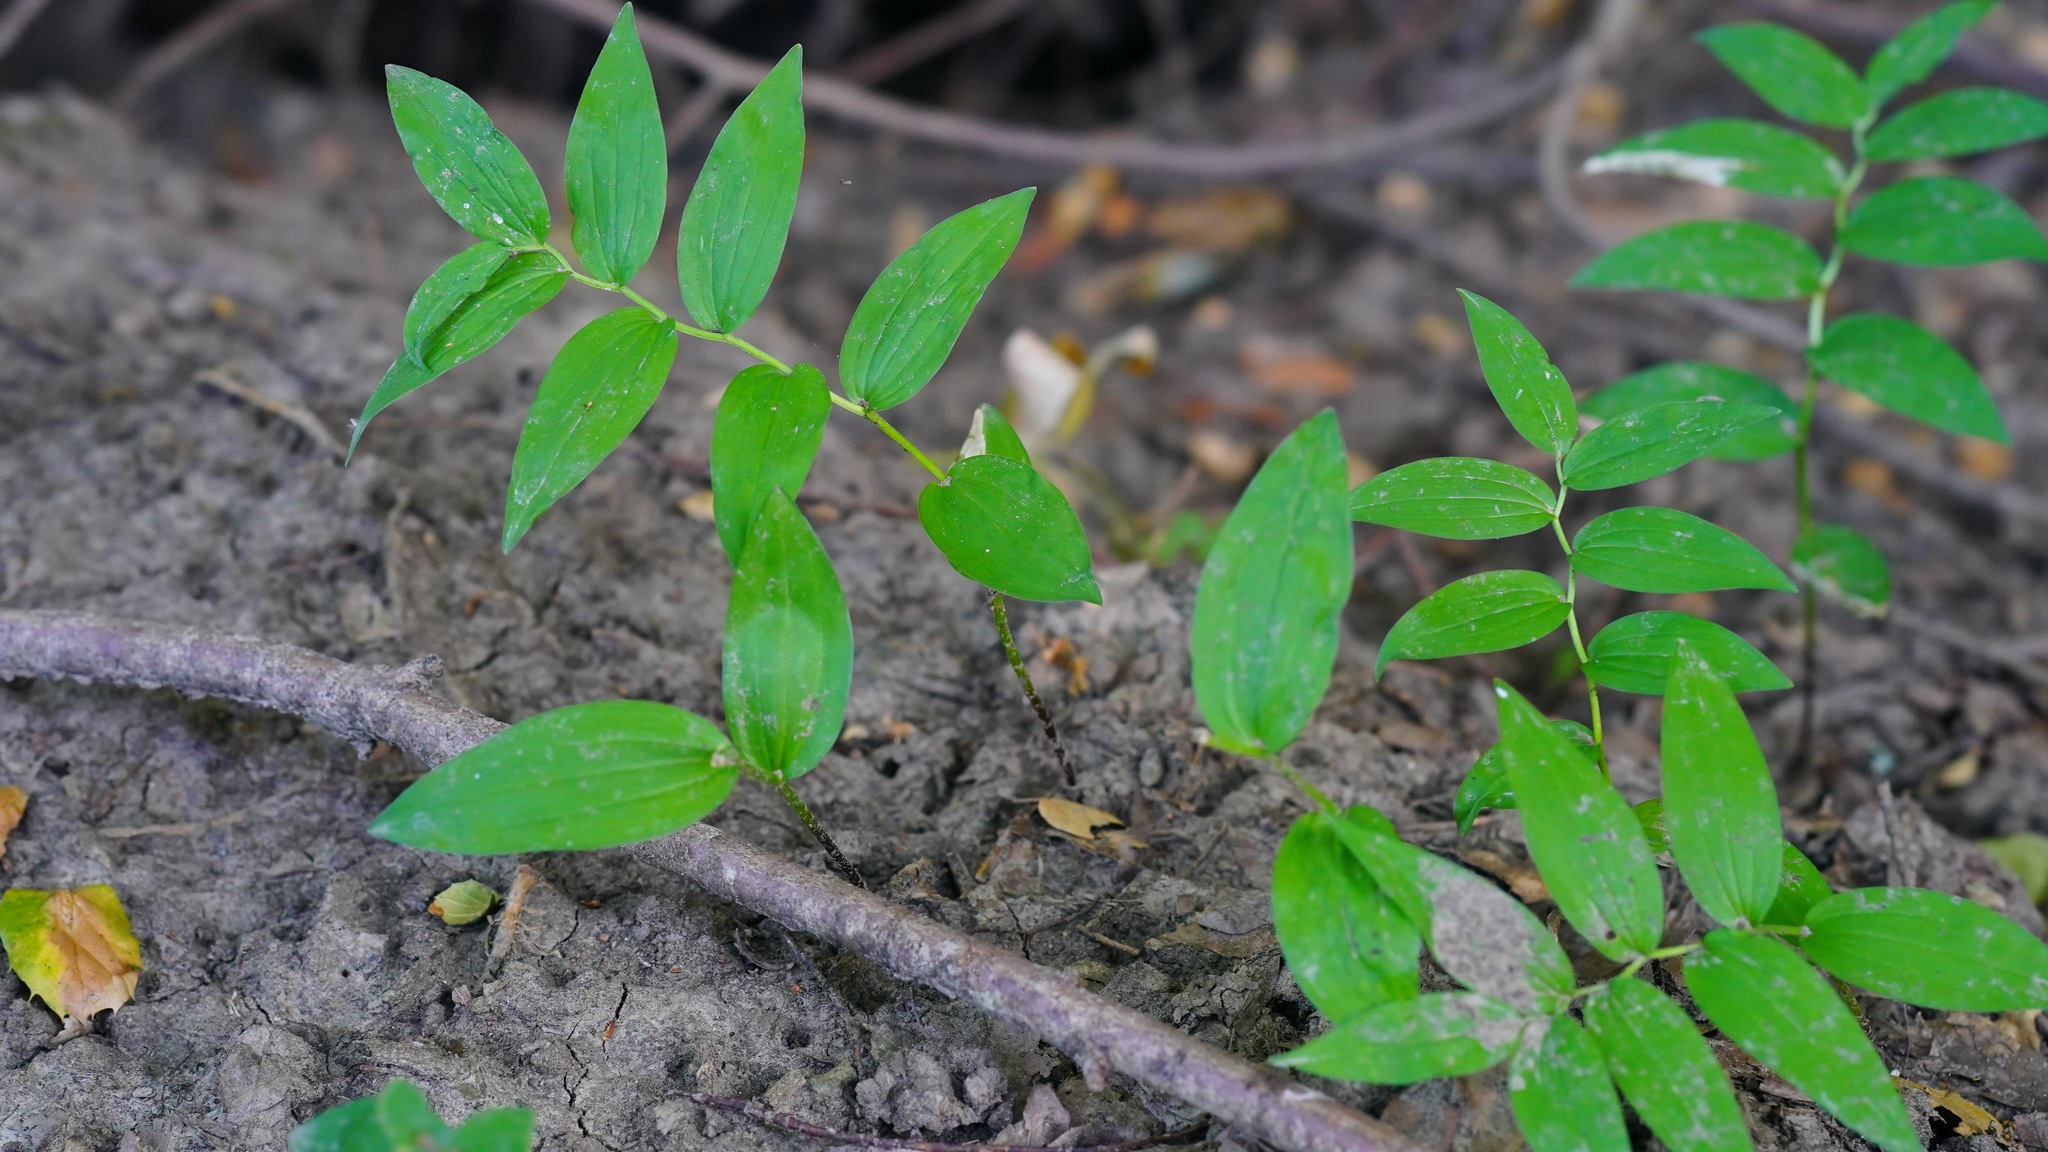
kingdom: Plantae
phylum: Tracheophyta
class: Liliopsida
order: Asparagales
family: Asparagaceae
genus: Maianthemum
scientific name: Maianthemum stellatum
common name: Little false solomon's seal
